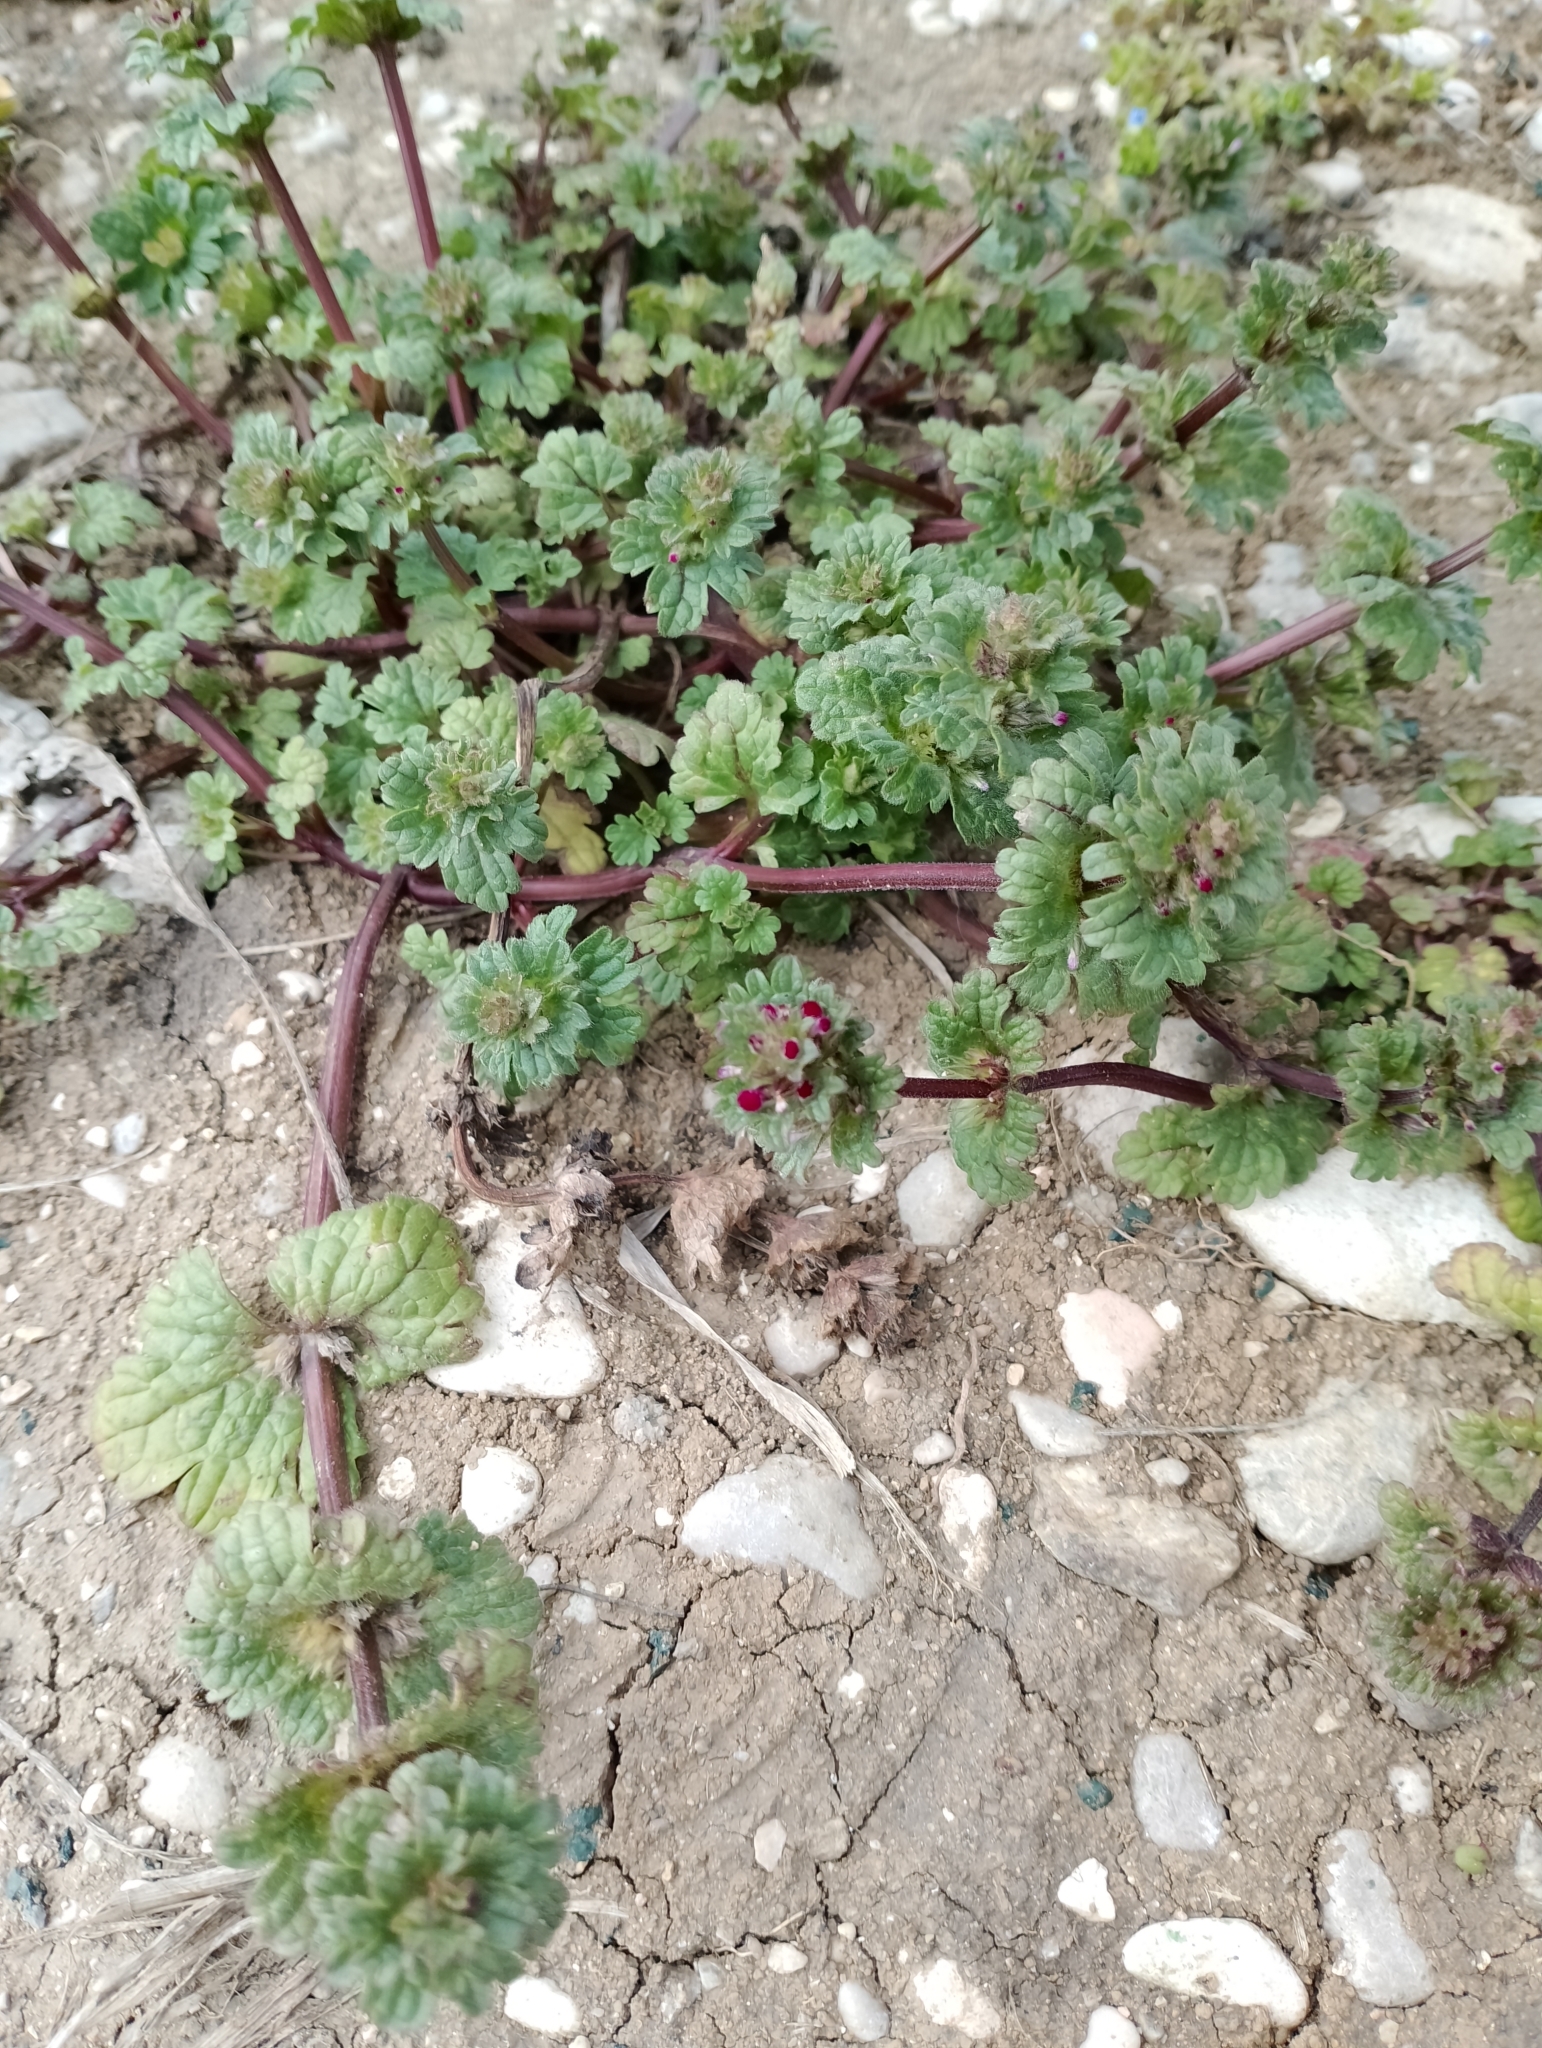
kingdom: Plantae
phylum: Tracheophyta
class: Magnoliopsida
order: Lamiales
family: Lamiaceae
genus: Lamium
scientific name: Lamium amplexicaule
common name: Henbit dead-nettle
